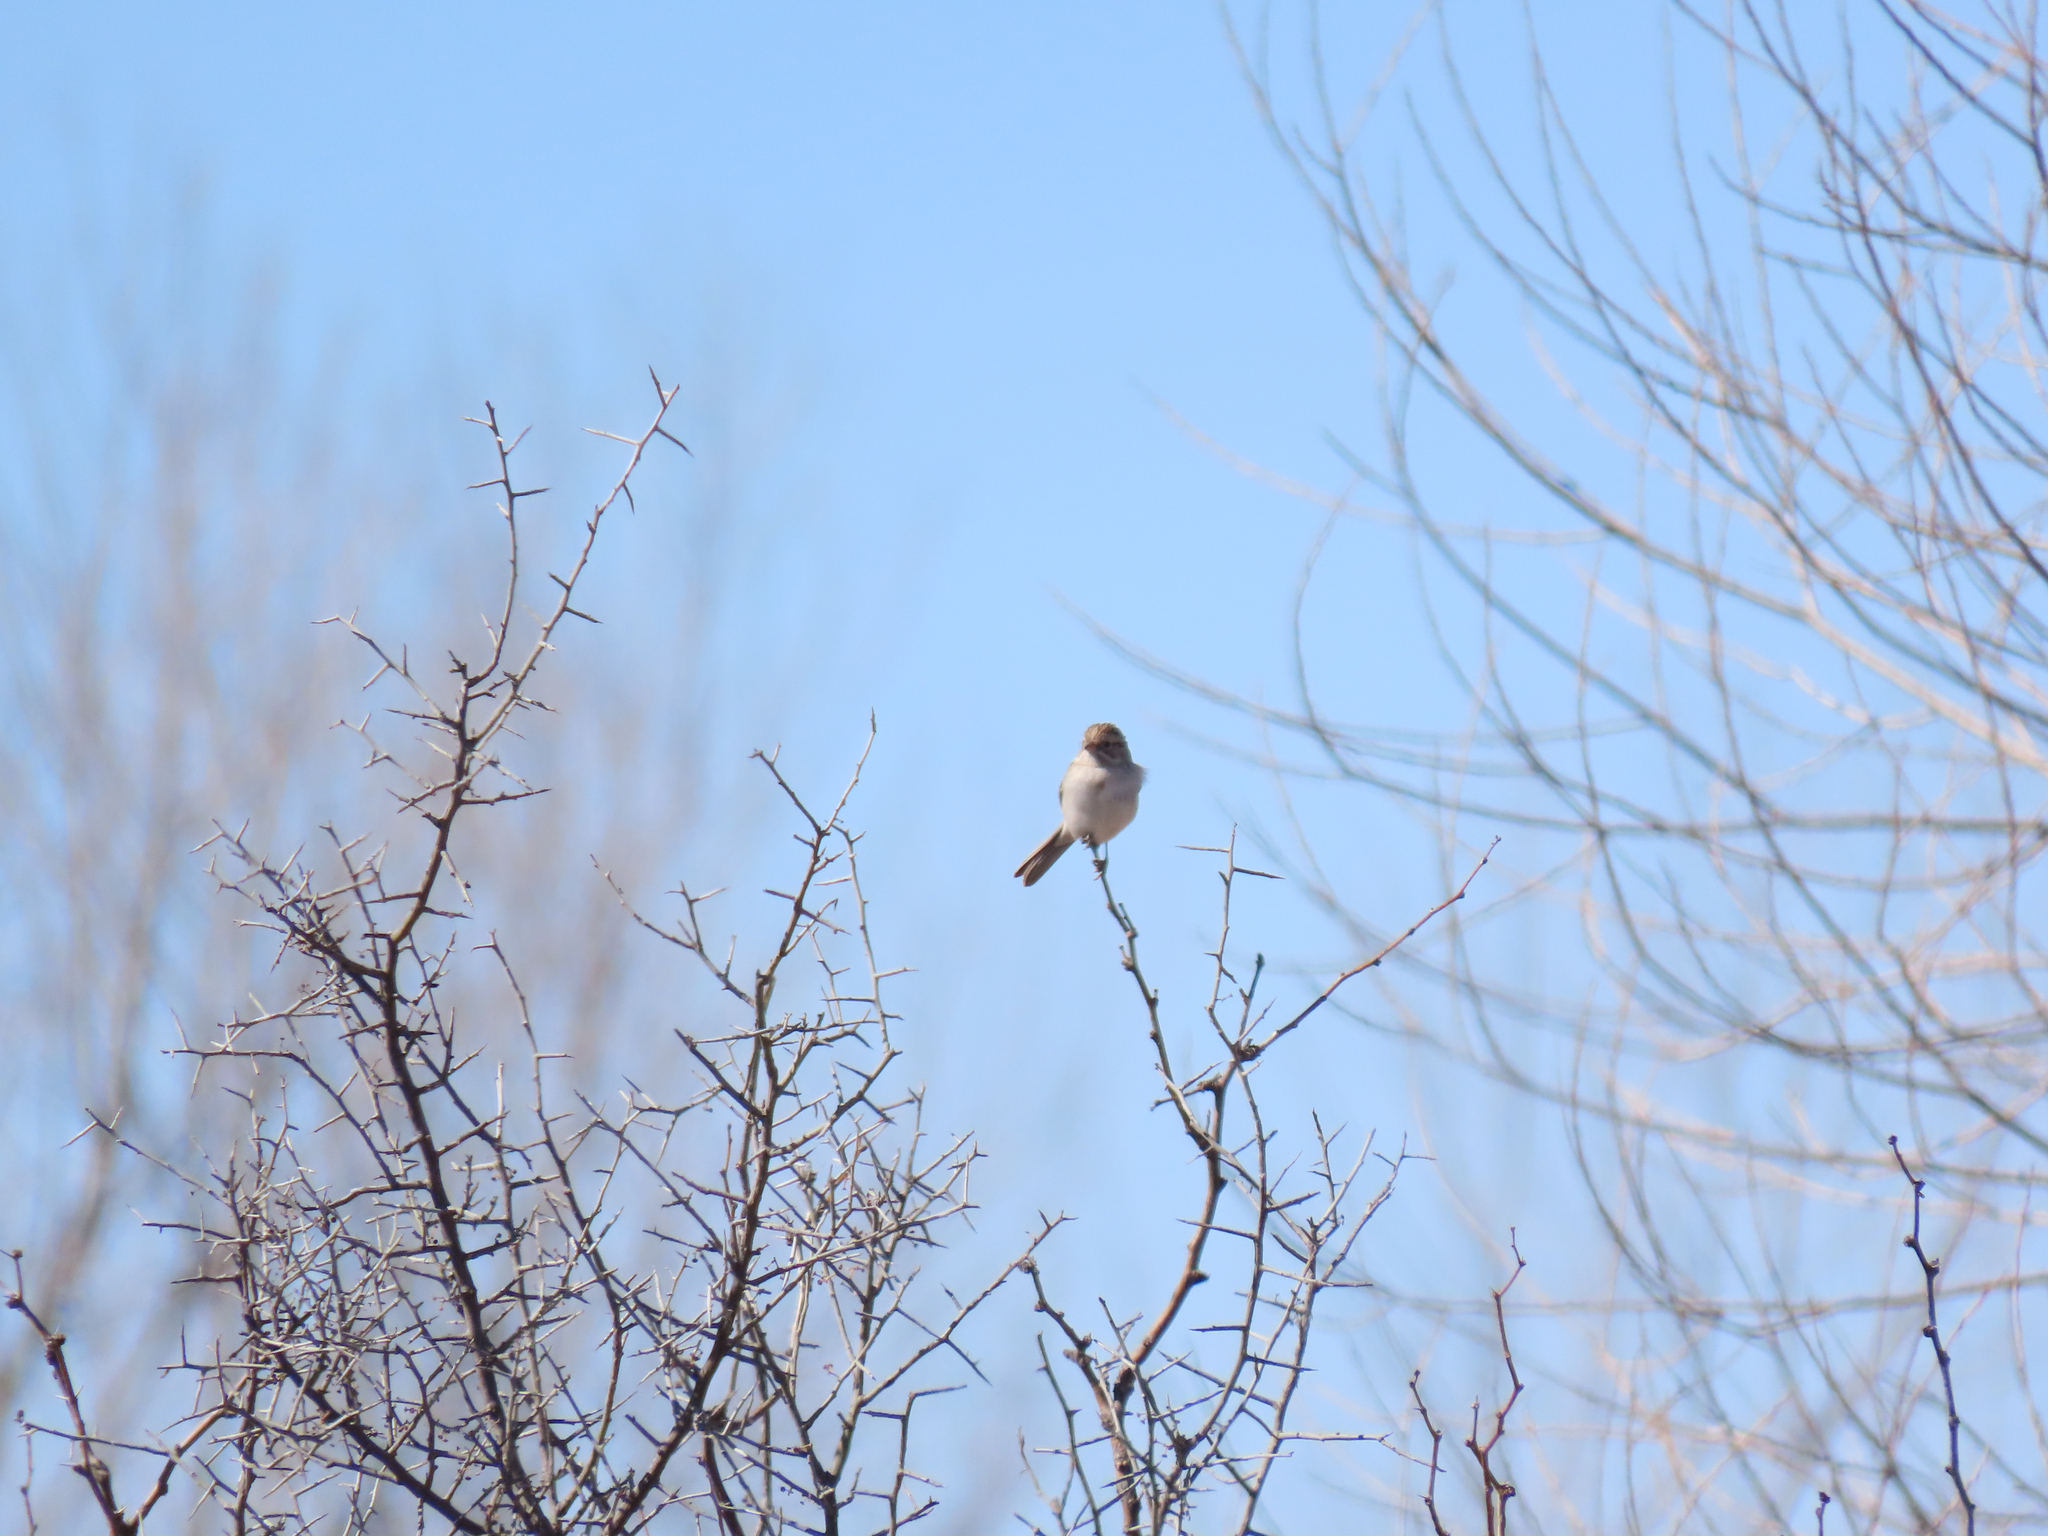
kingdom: Animalia
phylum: Chordata
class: Aves
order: Passeriformes
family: Passerellidae
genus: Spizella
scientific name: Spizella breweri
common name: Brewer's sparrow
